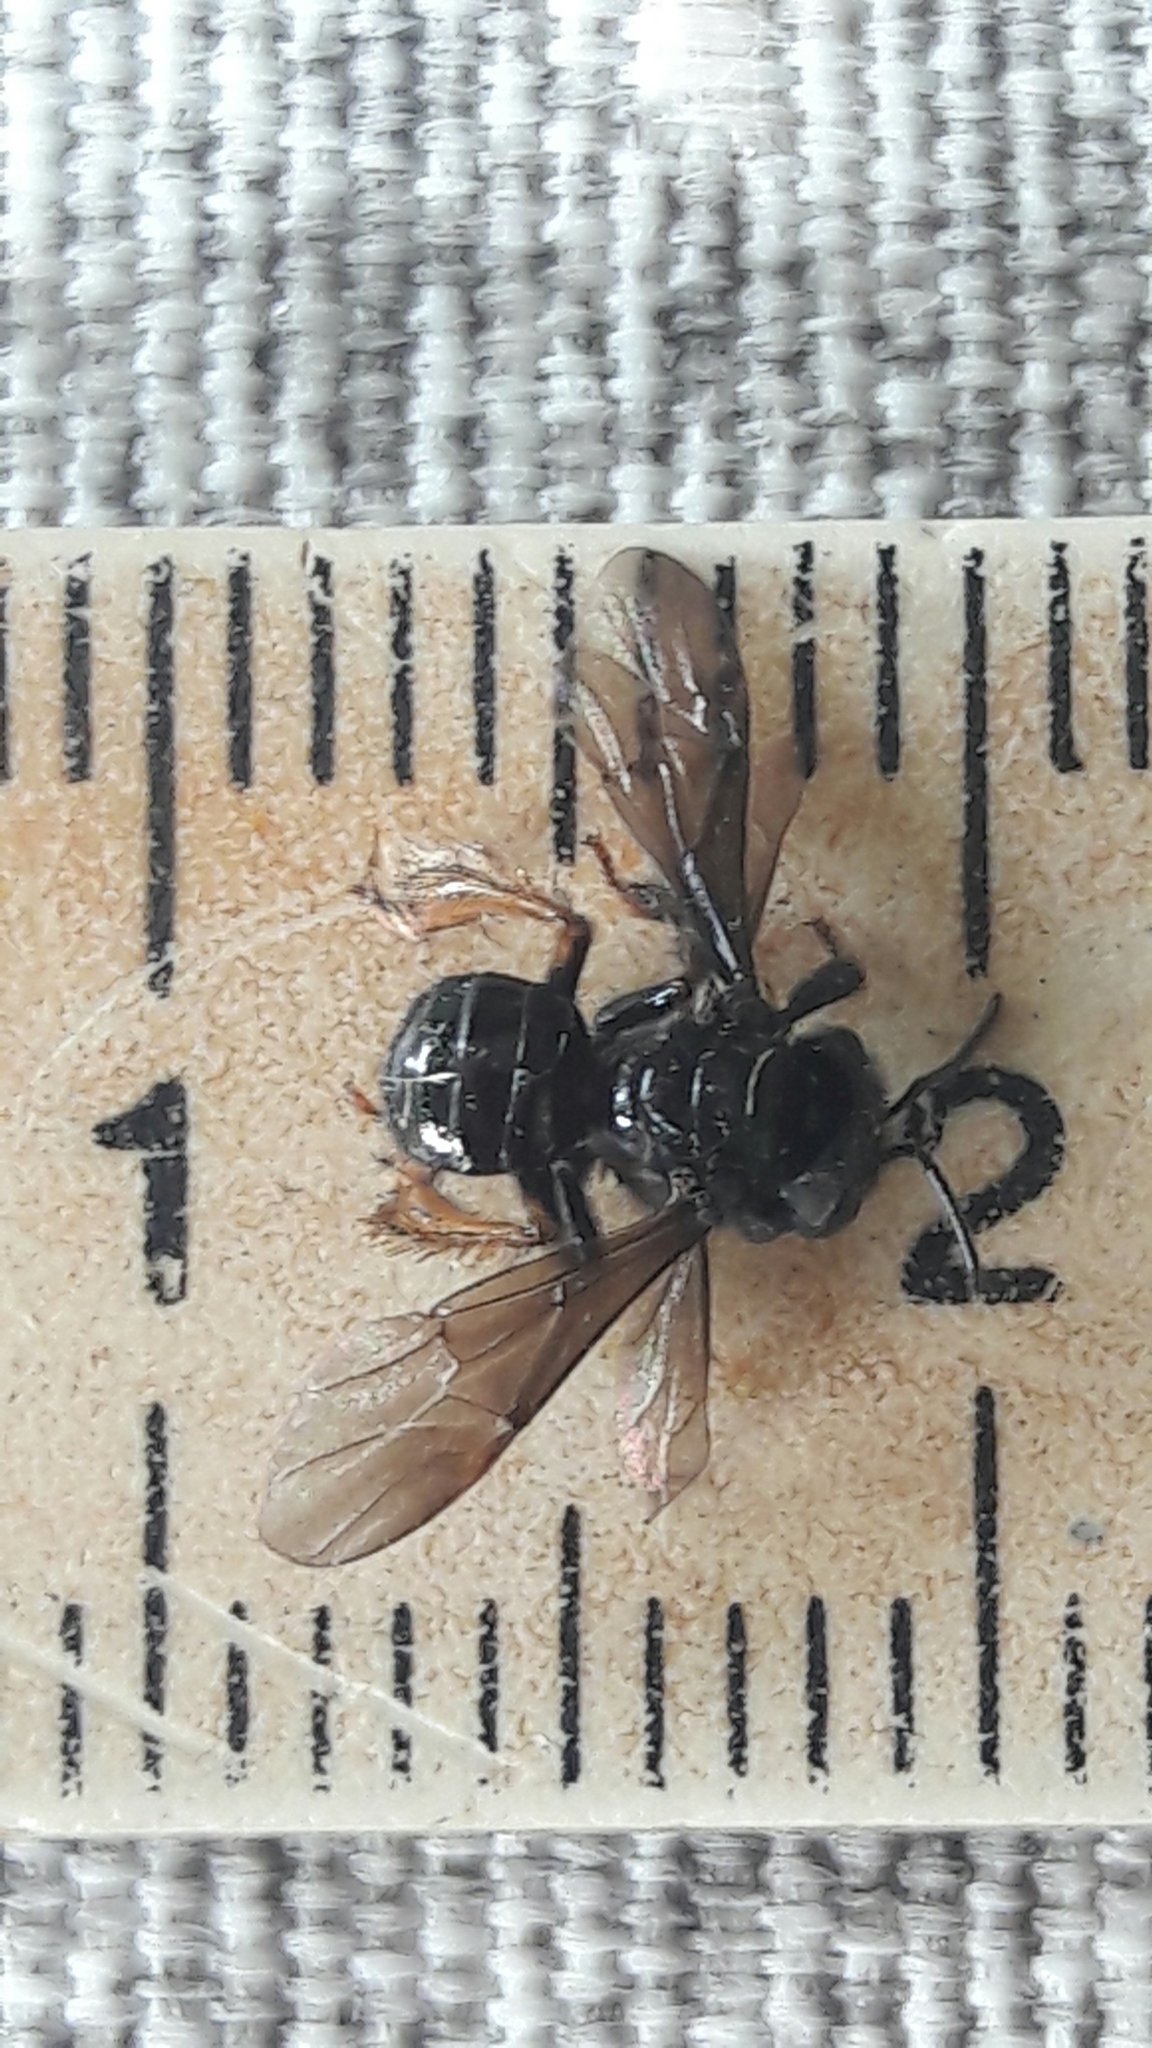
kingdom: Animalia
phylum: Arthropoda
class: Insecta
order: Hymenoptera
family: Apidae
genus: Trigona
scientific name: Trigona spinipes
